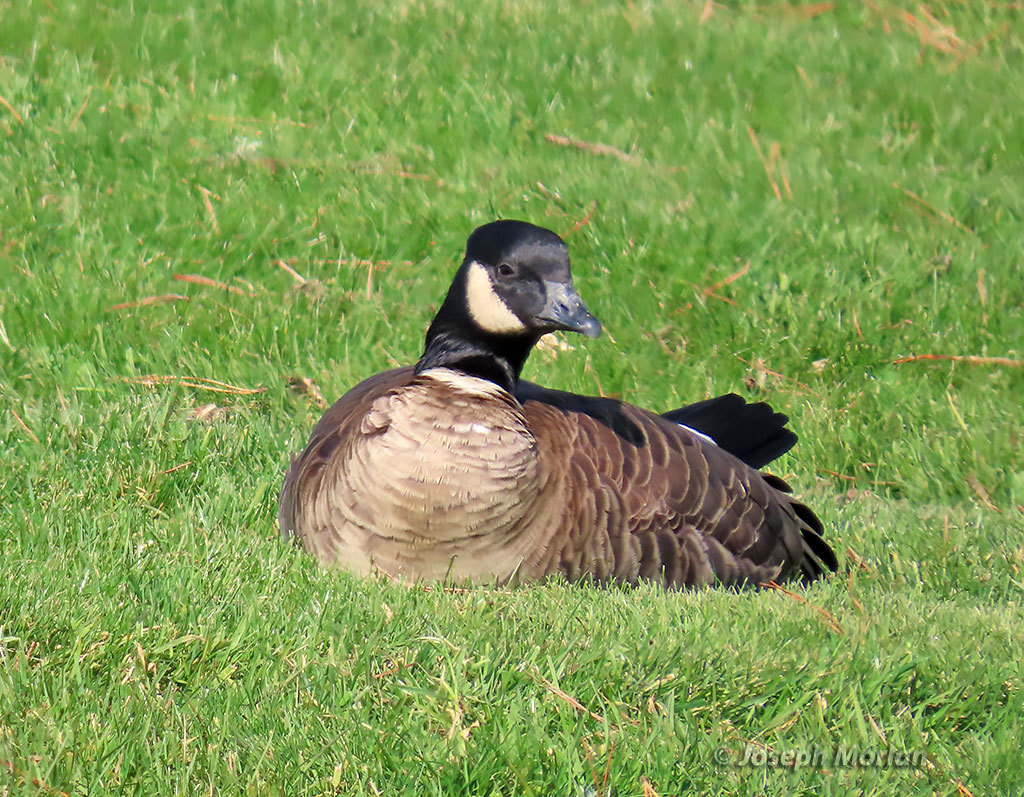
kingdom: Animalia
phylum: Chordata
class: Aves
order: Anseriformes
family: Anatidae
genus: Branta
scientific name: Branta hutchinsii
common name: Cackling goose
